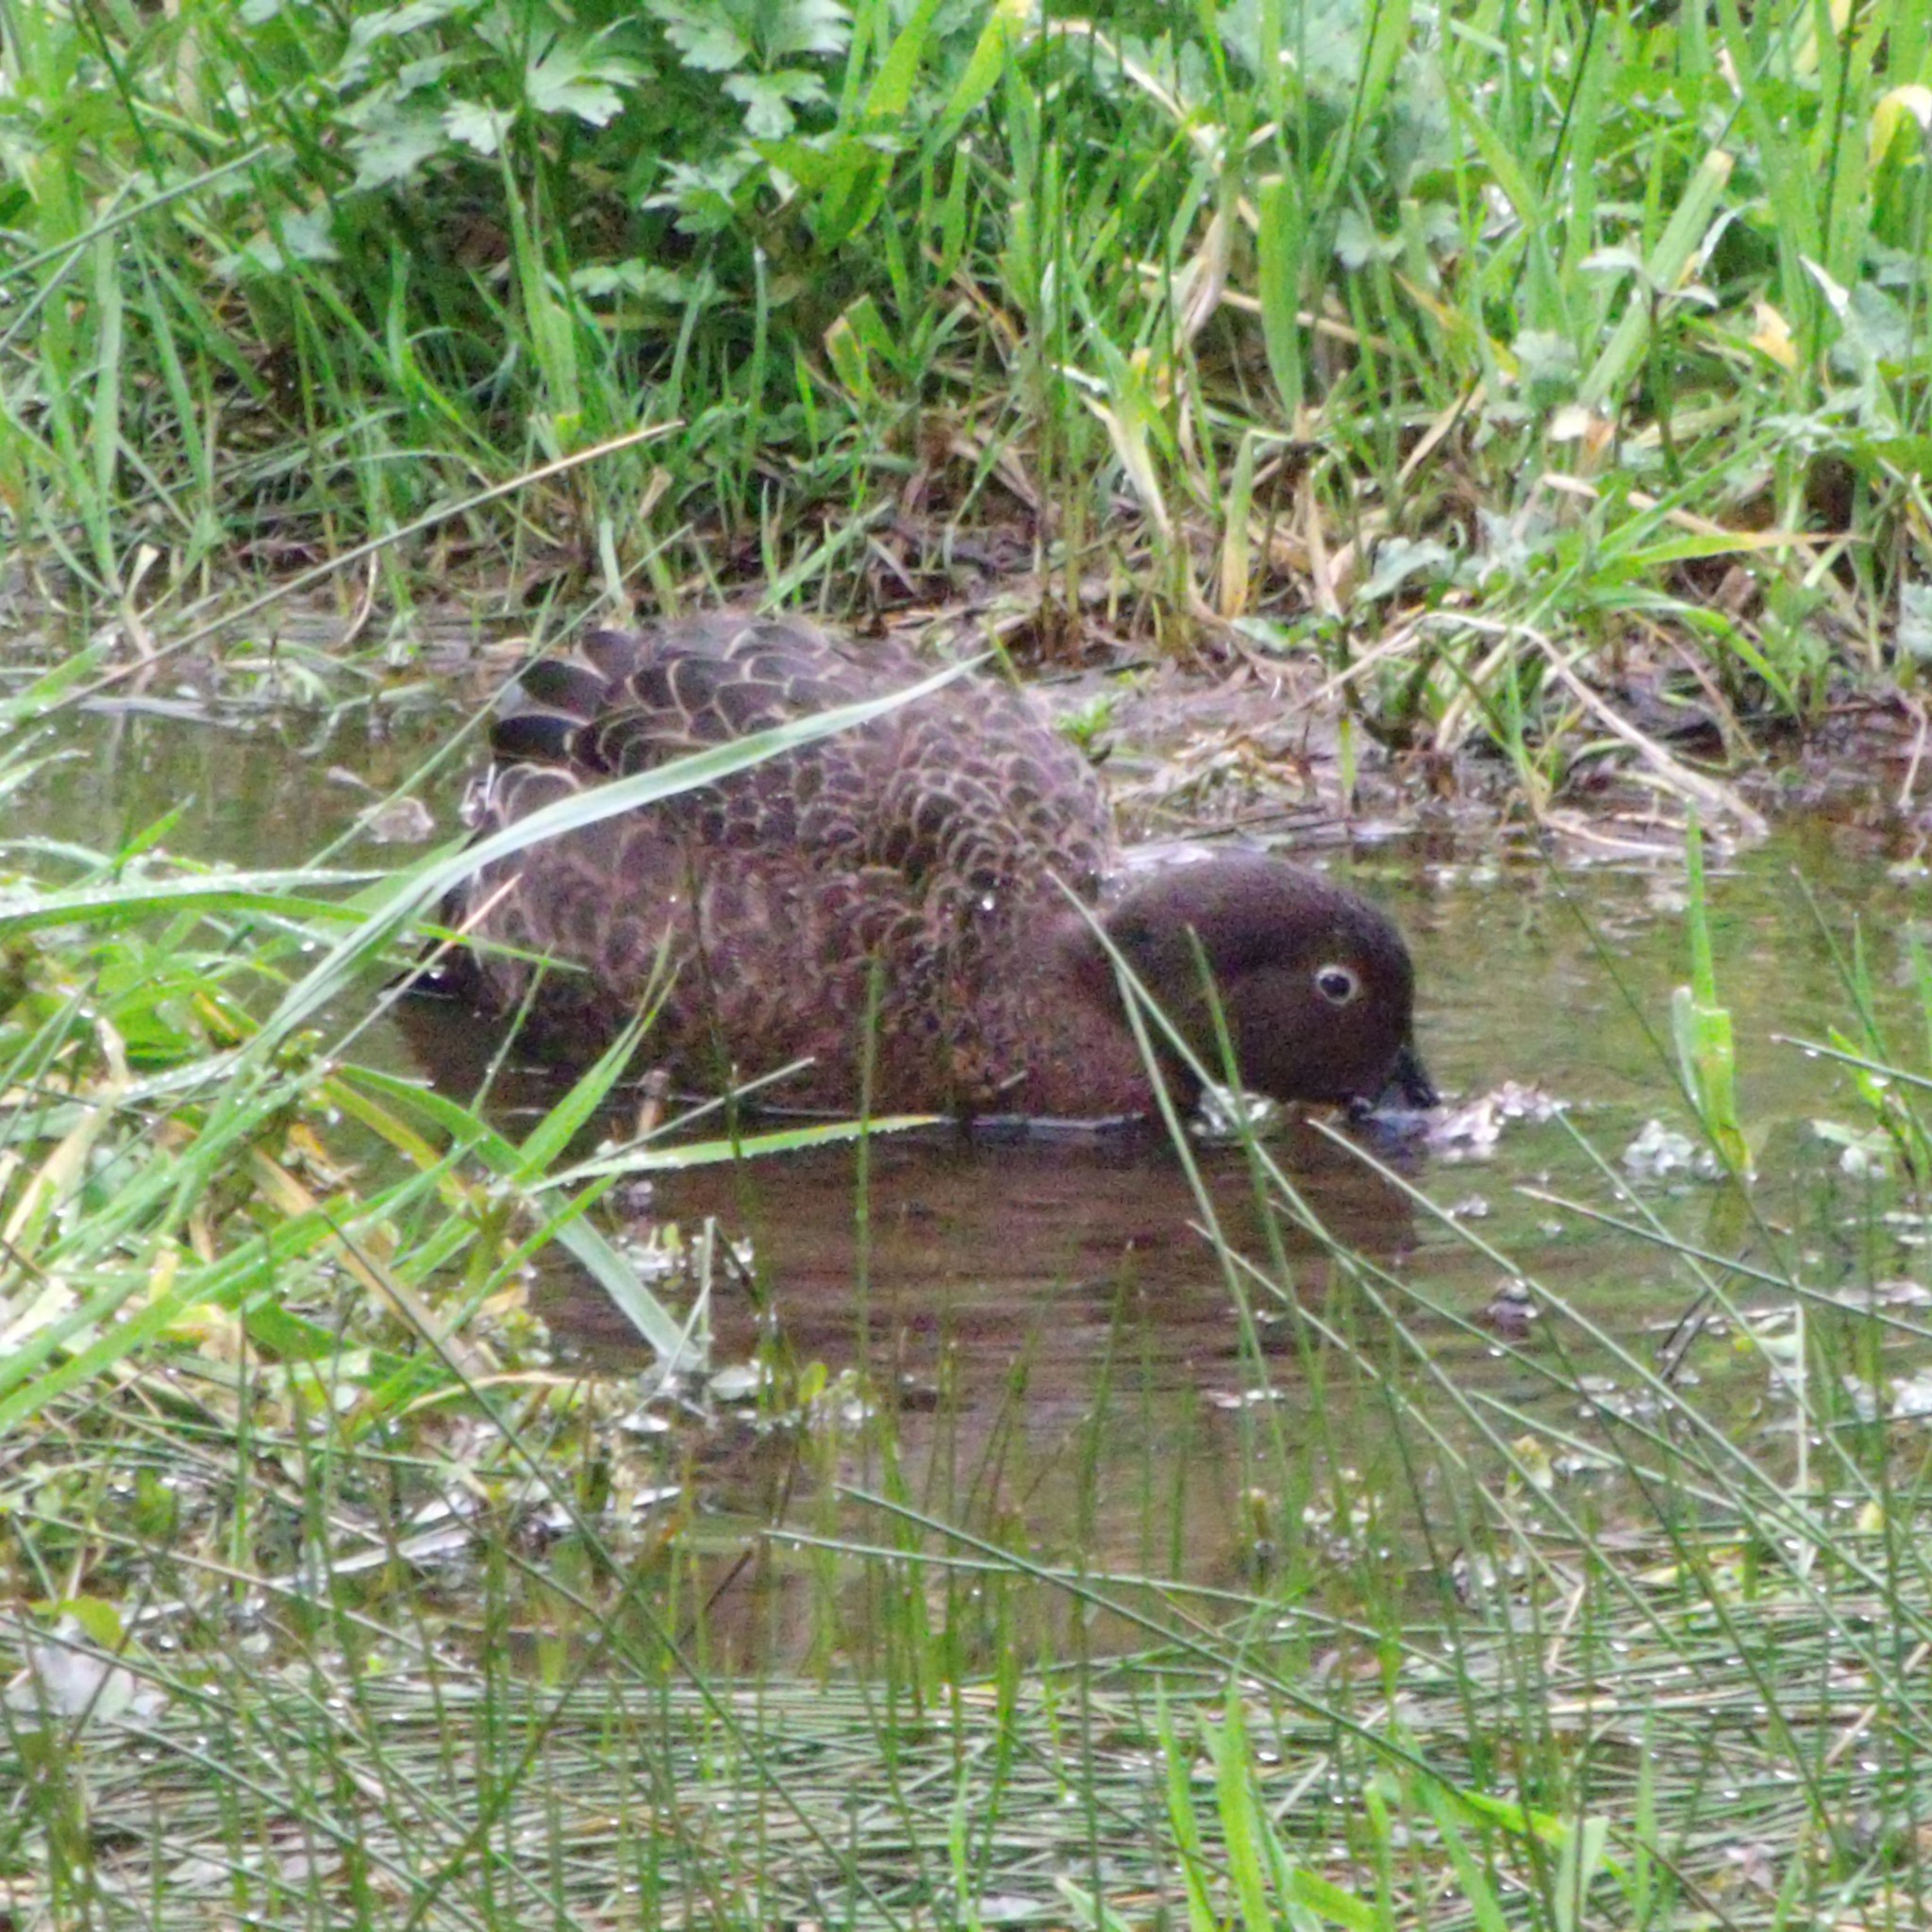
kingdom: Animalia
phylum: Chordata
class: Aves
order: Anseriformes
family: Anatidae
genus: Anas
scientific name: Anas chlorotis
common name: Brown teal
